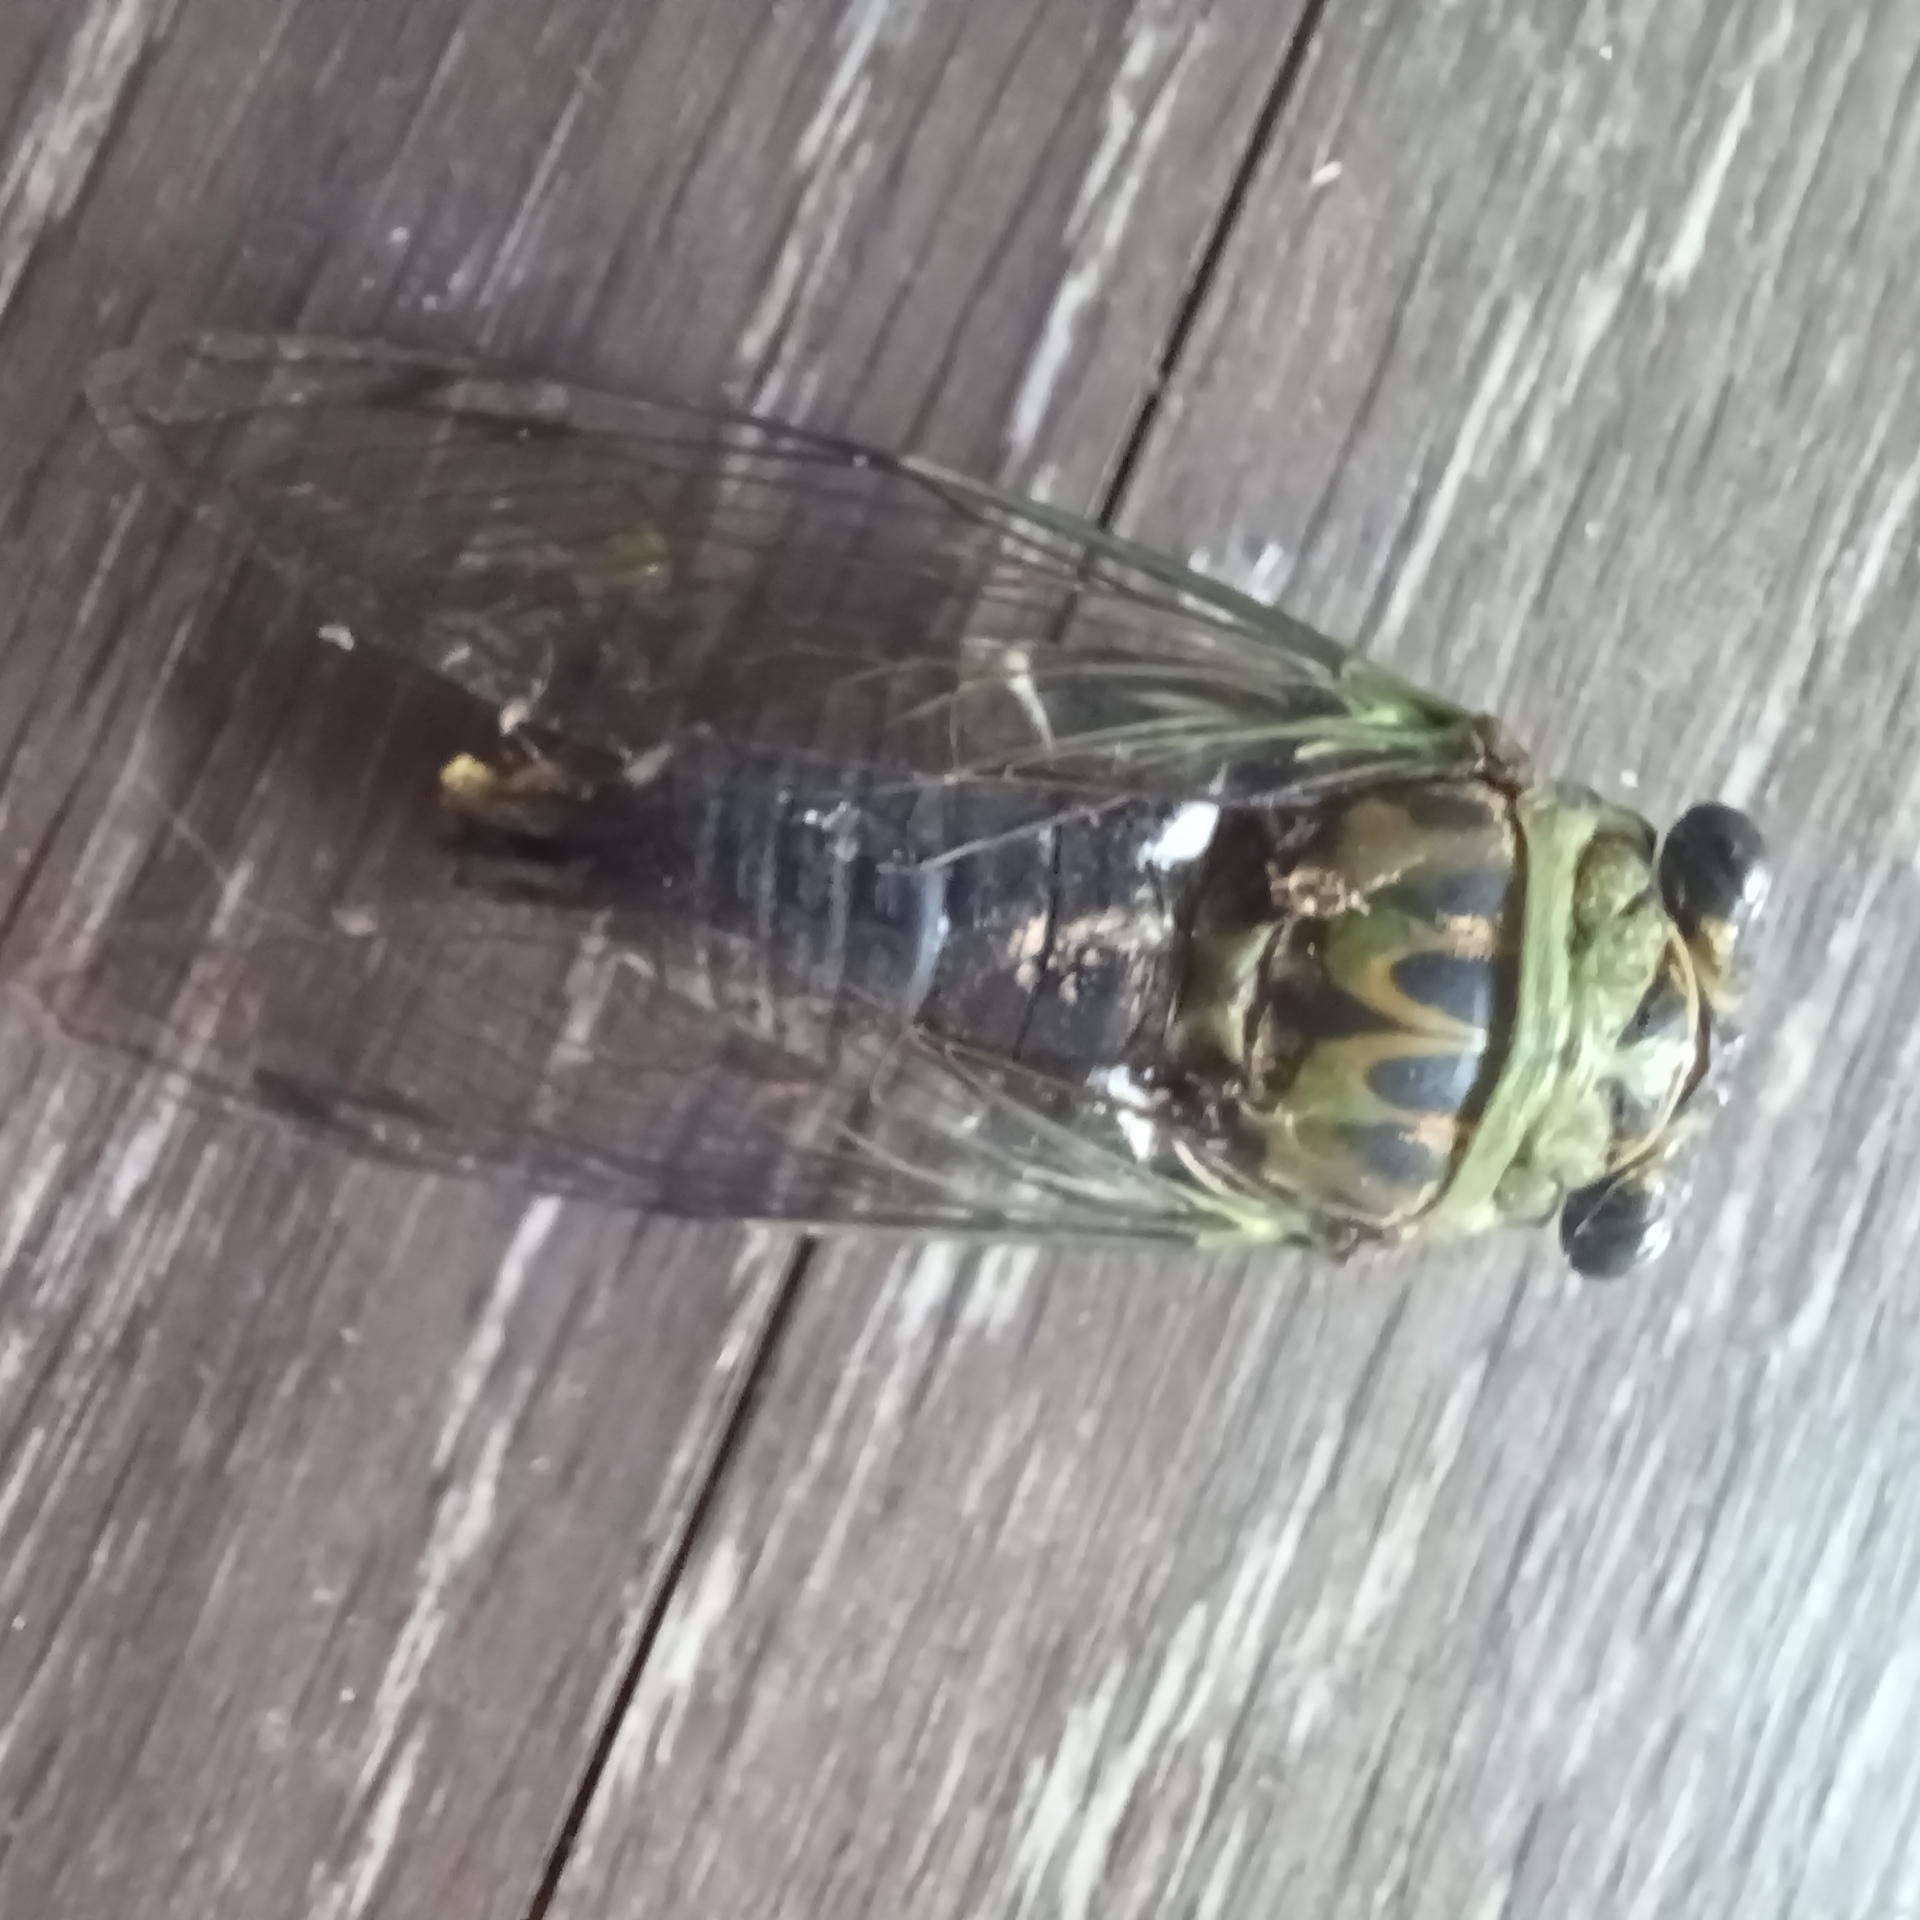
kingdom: Animalia
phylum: Arthropoda
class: Insecta
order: Hemiptera
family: Cicadidae
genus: Neotibicen
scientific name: Neotibicen pruinosus
